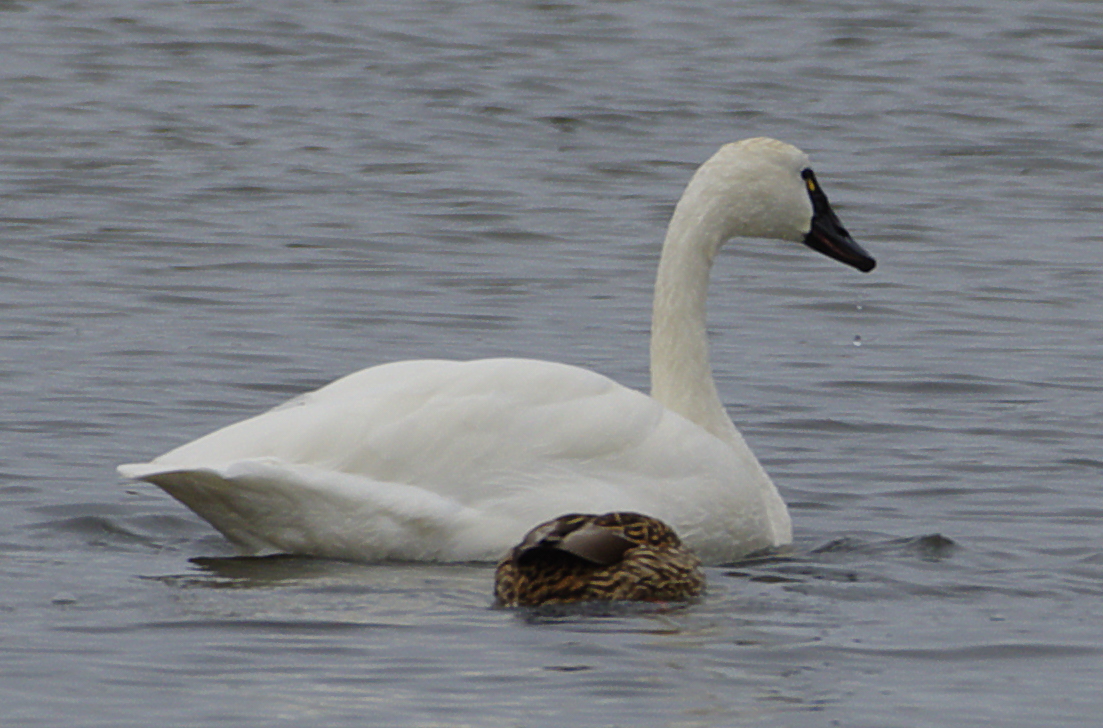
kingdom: Animalia
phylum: Chordata
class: Aves
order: Anseriformes
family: Anatidae
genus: Cygnus
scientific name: Cygnus columbianus
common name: Tundra swan
